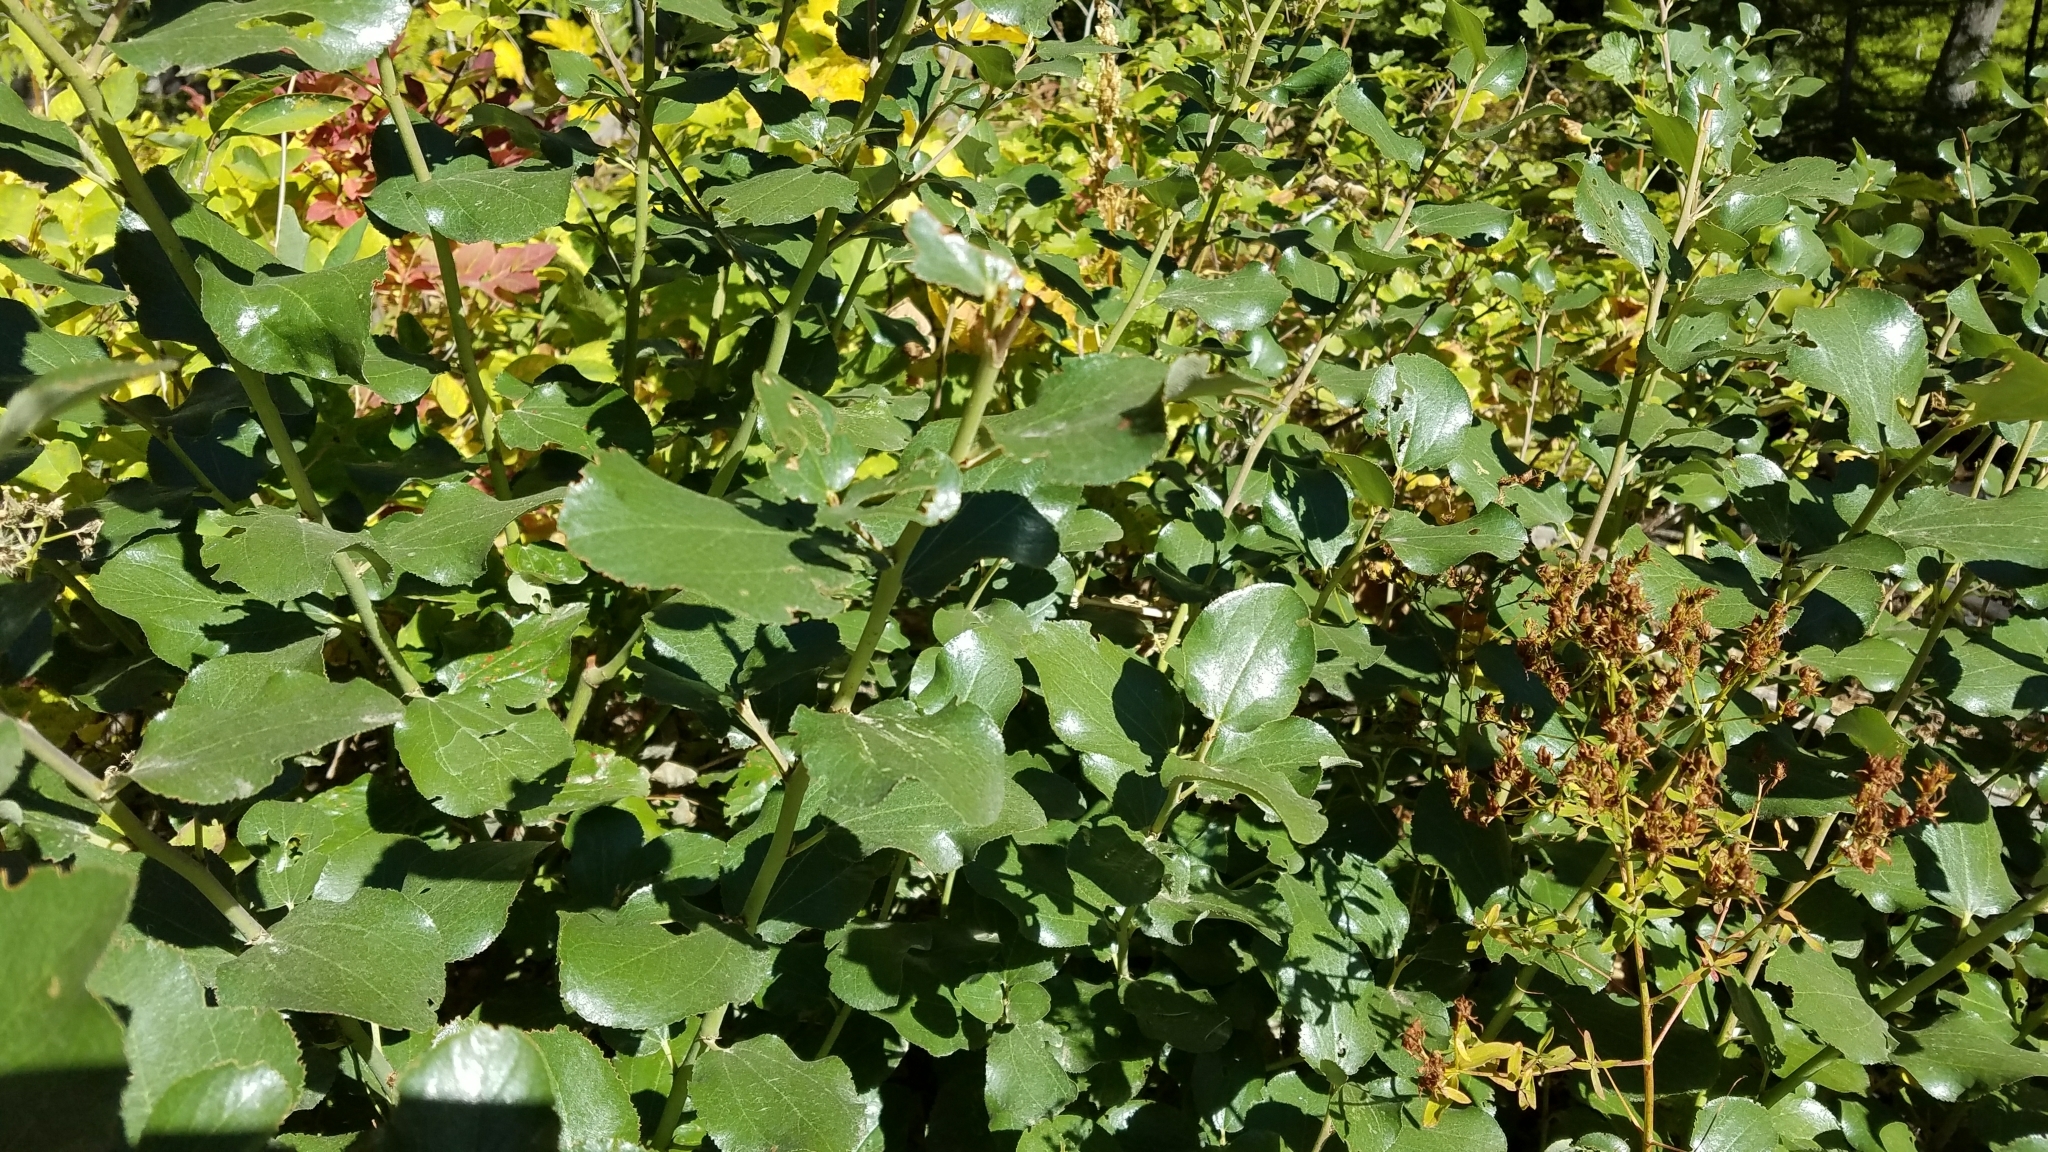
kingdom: Plantae
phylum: Tracheophyta
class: Magnoliopsida
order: Rosales
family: Rhamnaceae
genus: Ceanothus
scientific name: Ceanothus velutinus
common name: Snowbrush
